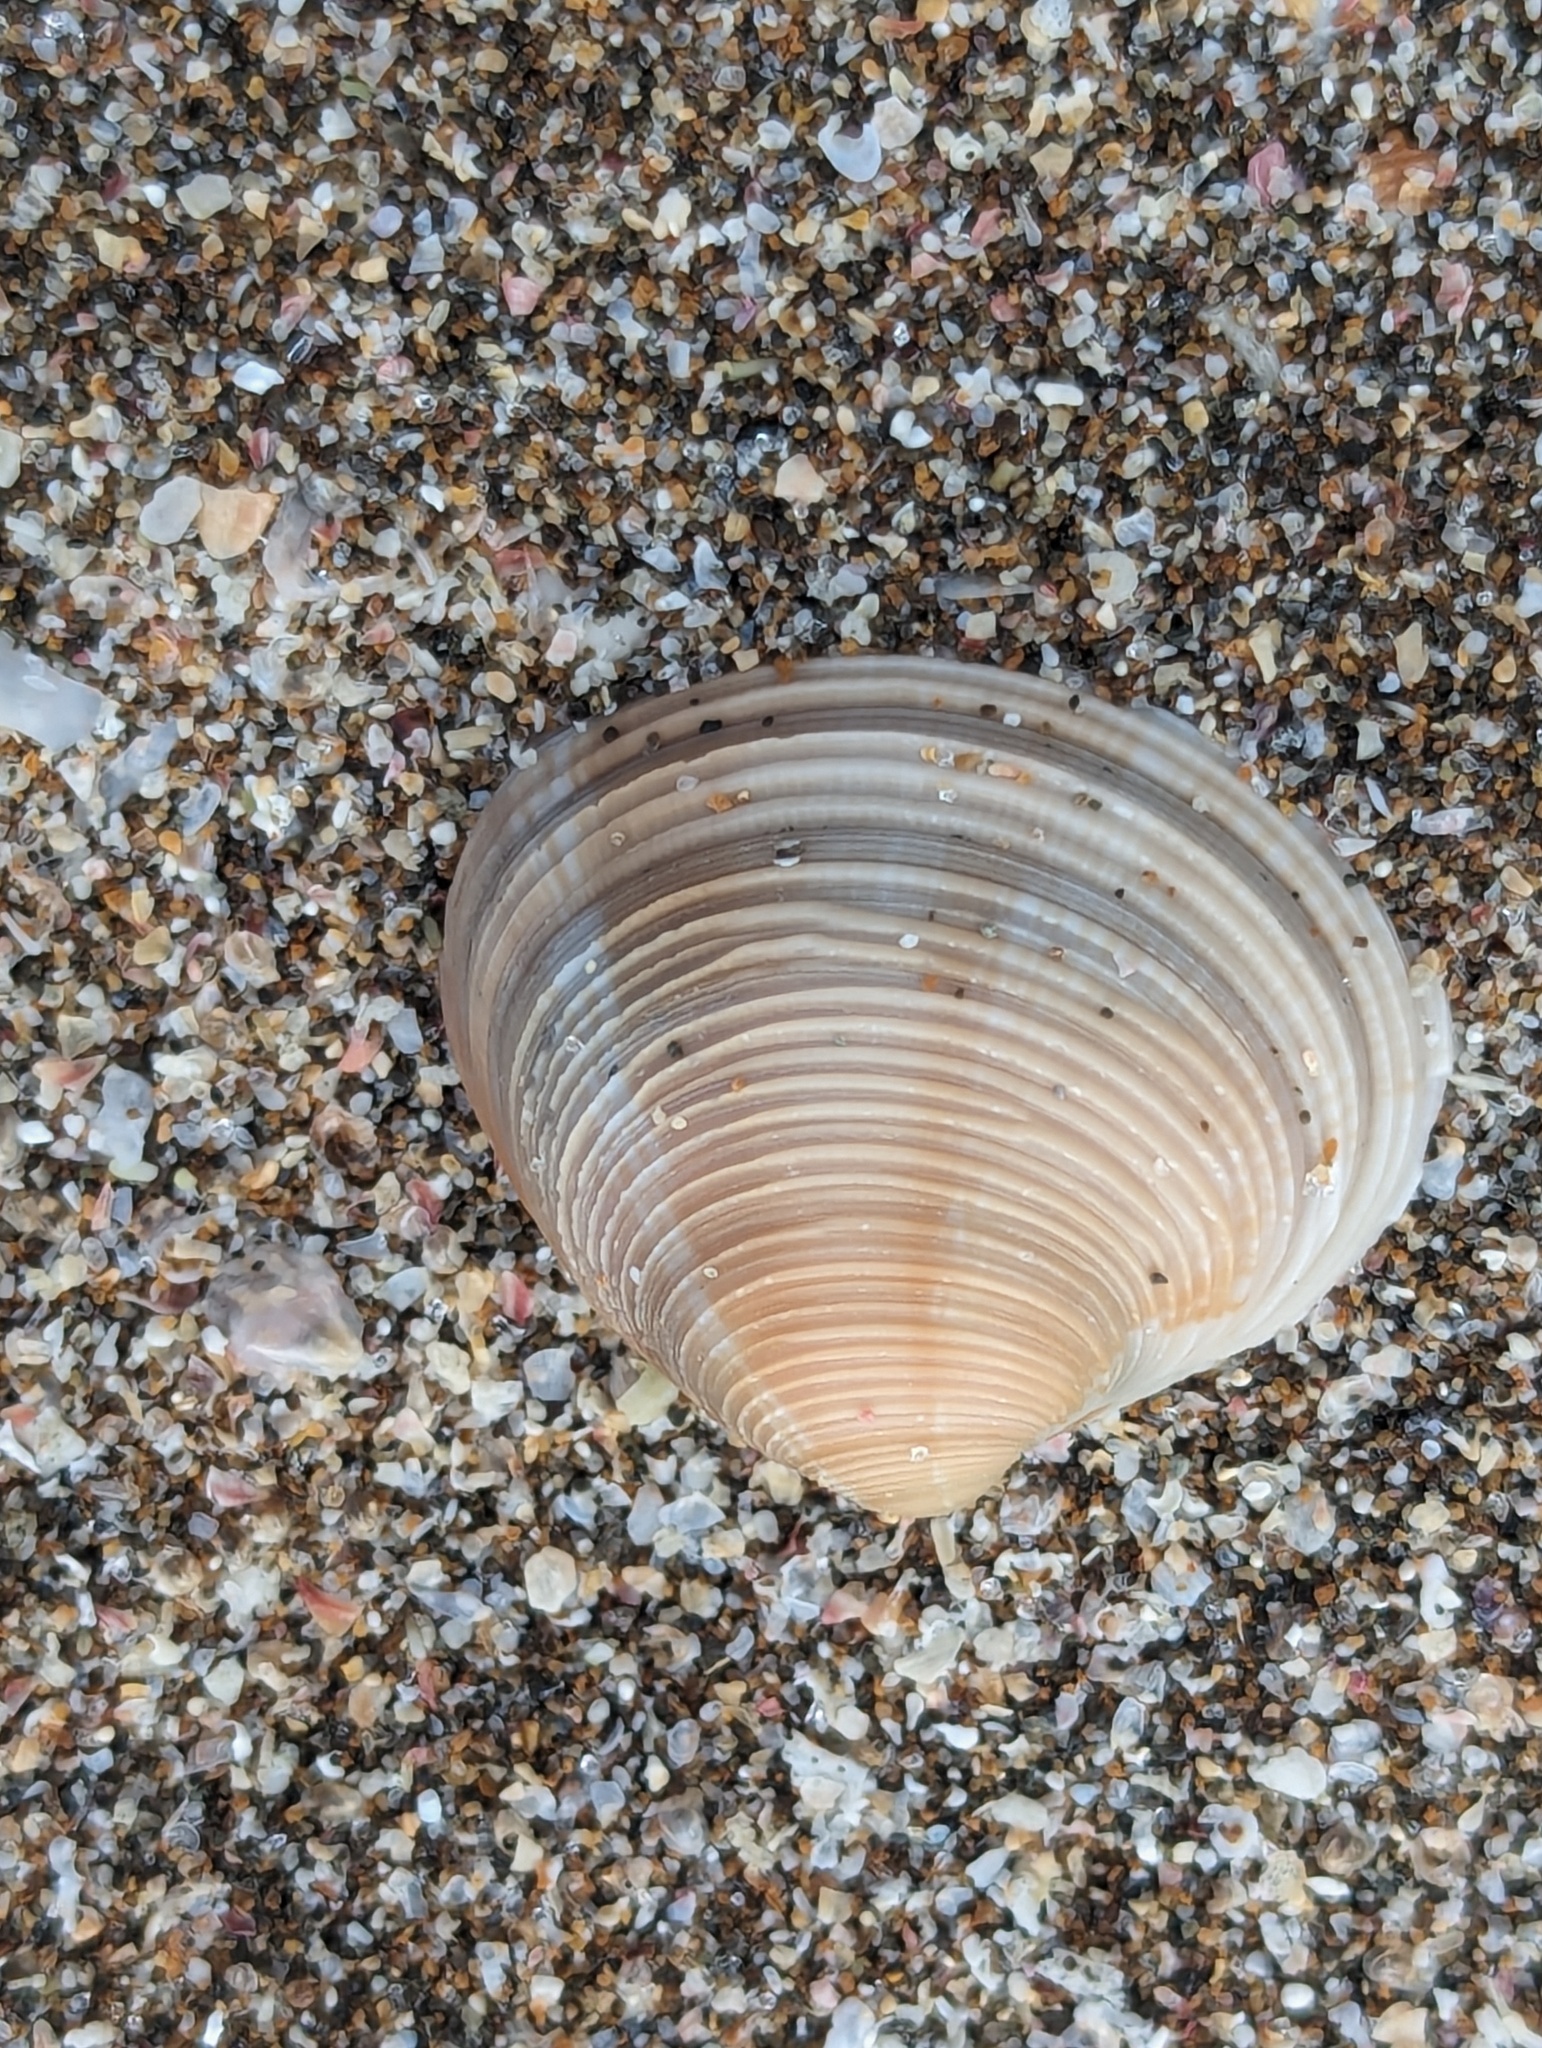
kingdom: Animalia
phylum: Mollusca
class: Bivalvia
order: Venerida
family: Veneridae
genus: Tawera
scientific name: Tawera spissa
